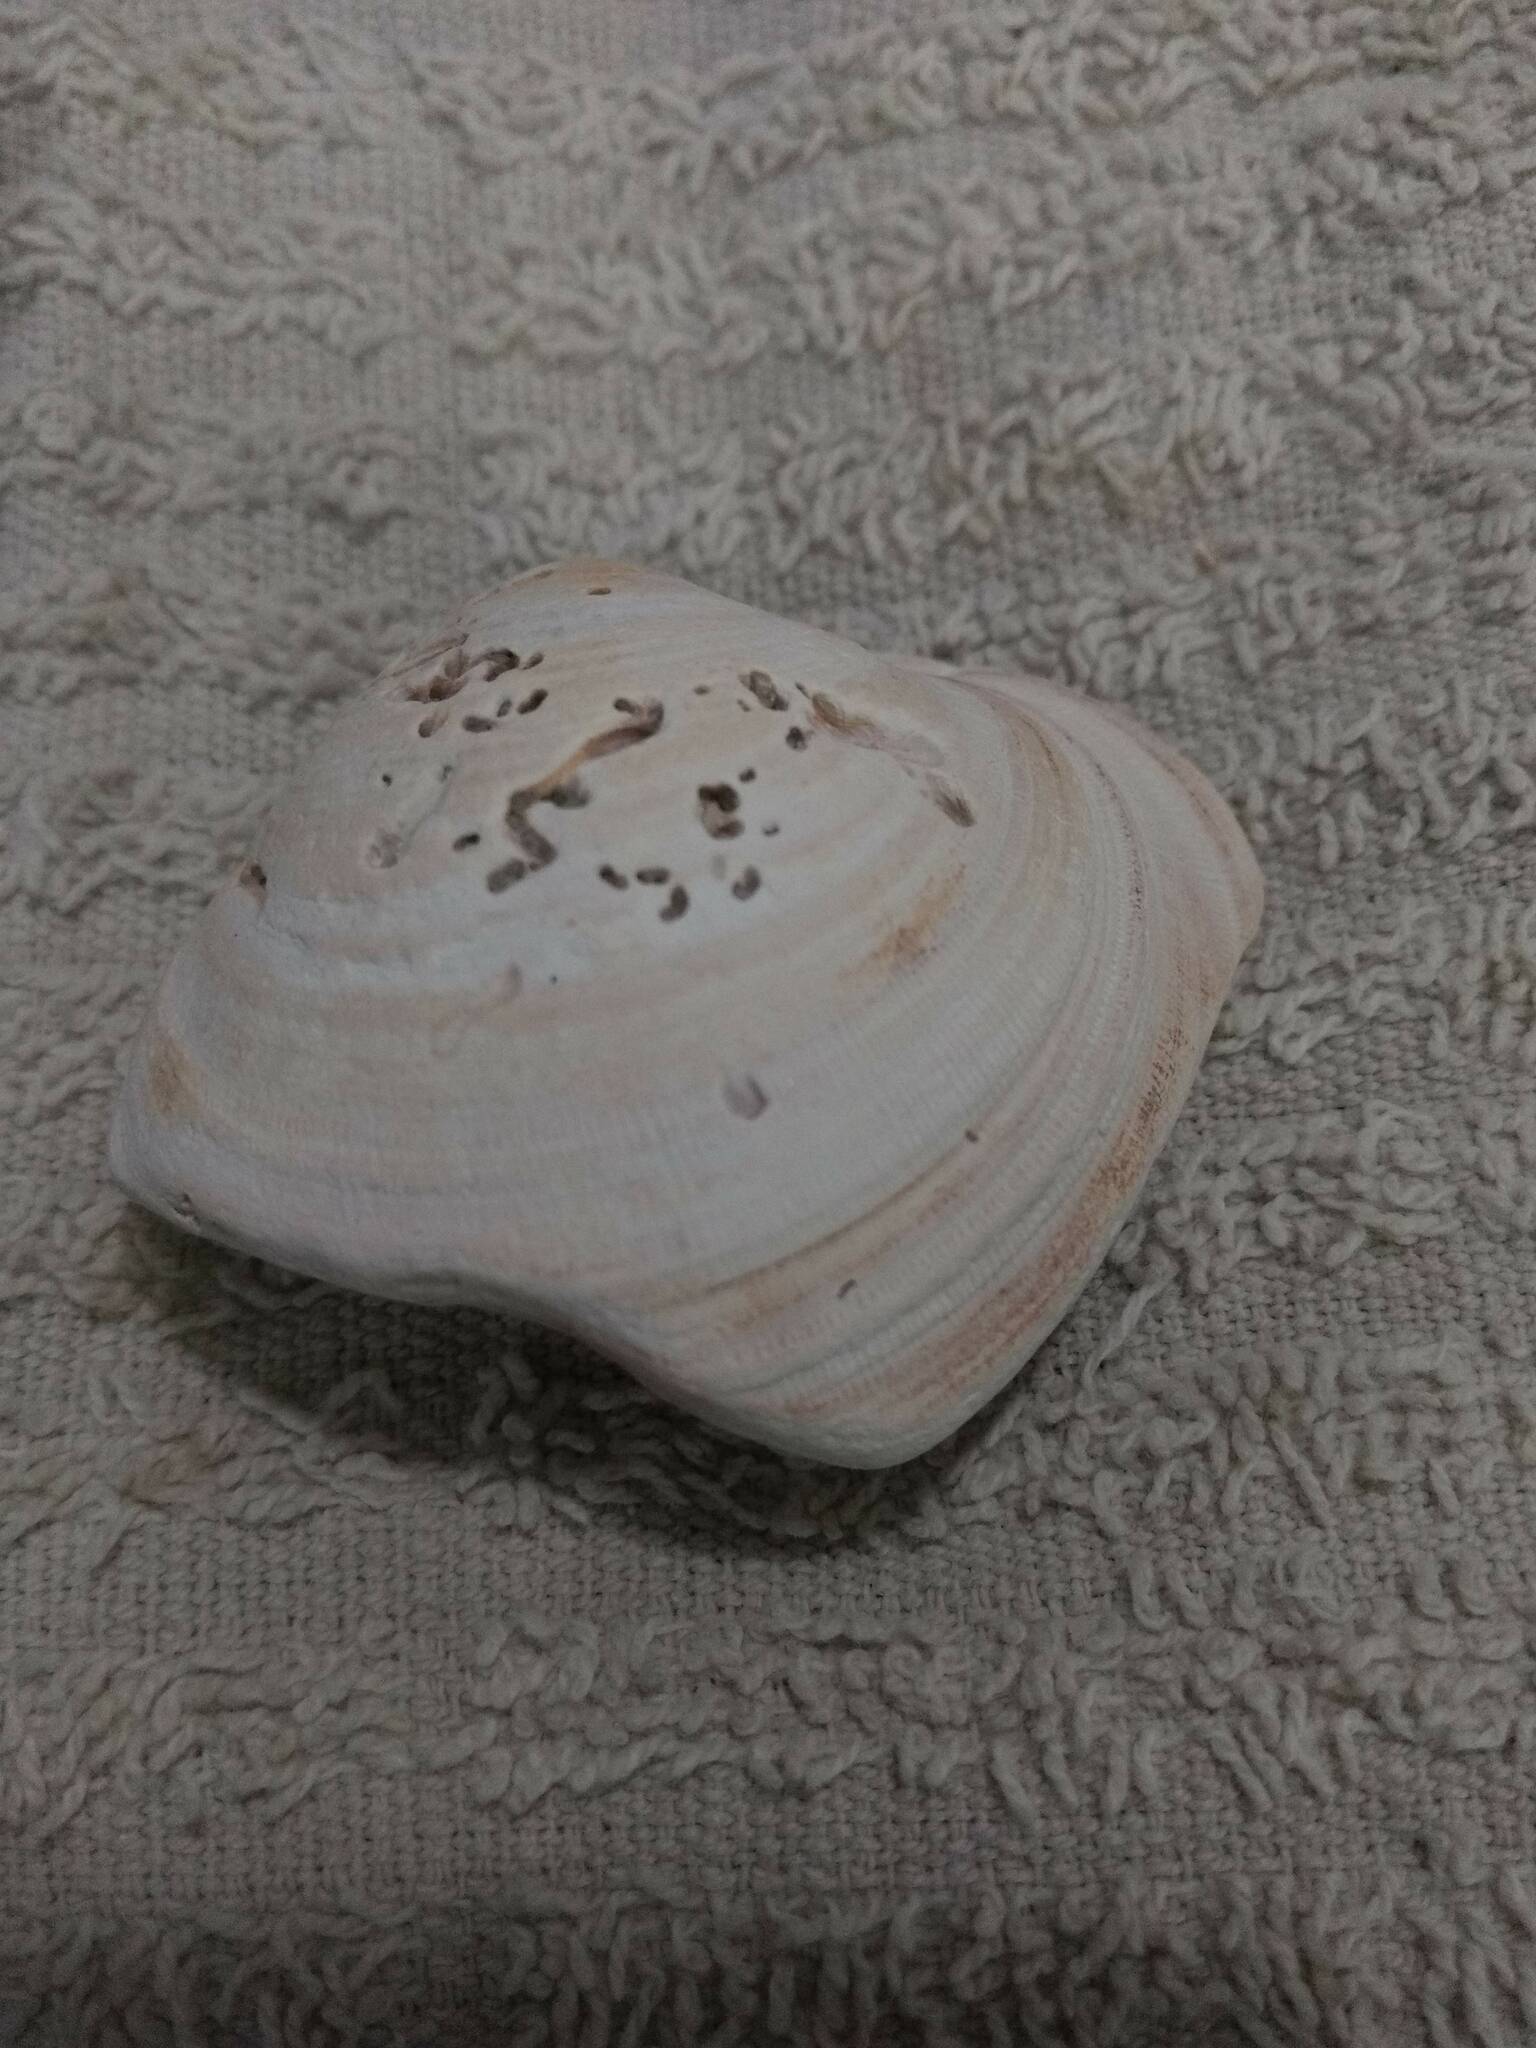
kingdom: Animalia
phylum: Mollusca
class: Bivalvia
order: Venerida
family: Veneridae
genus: Mercenaria
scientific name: Mercenaria
